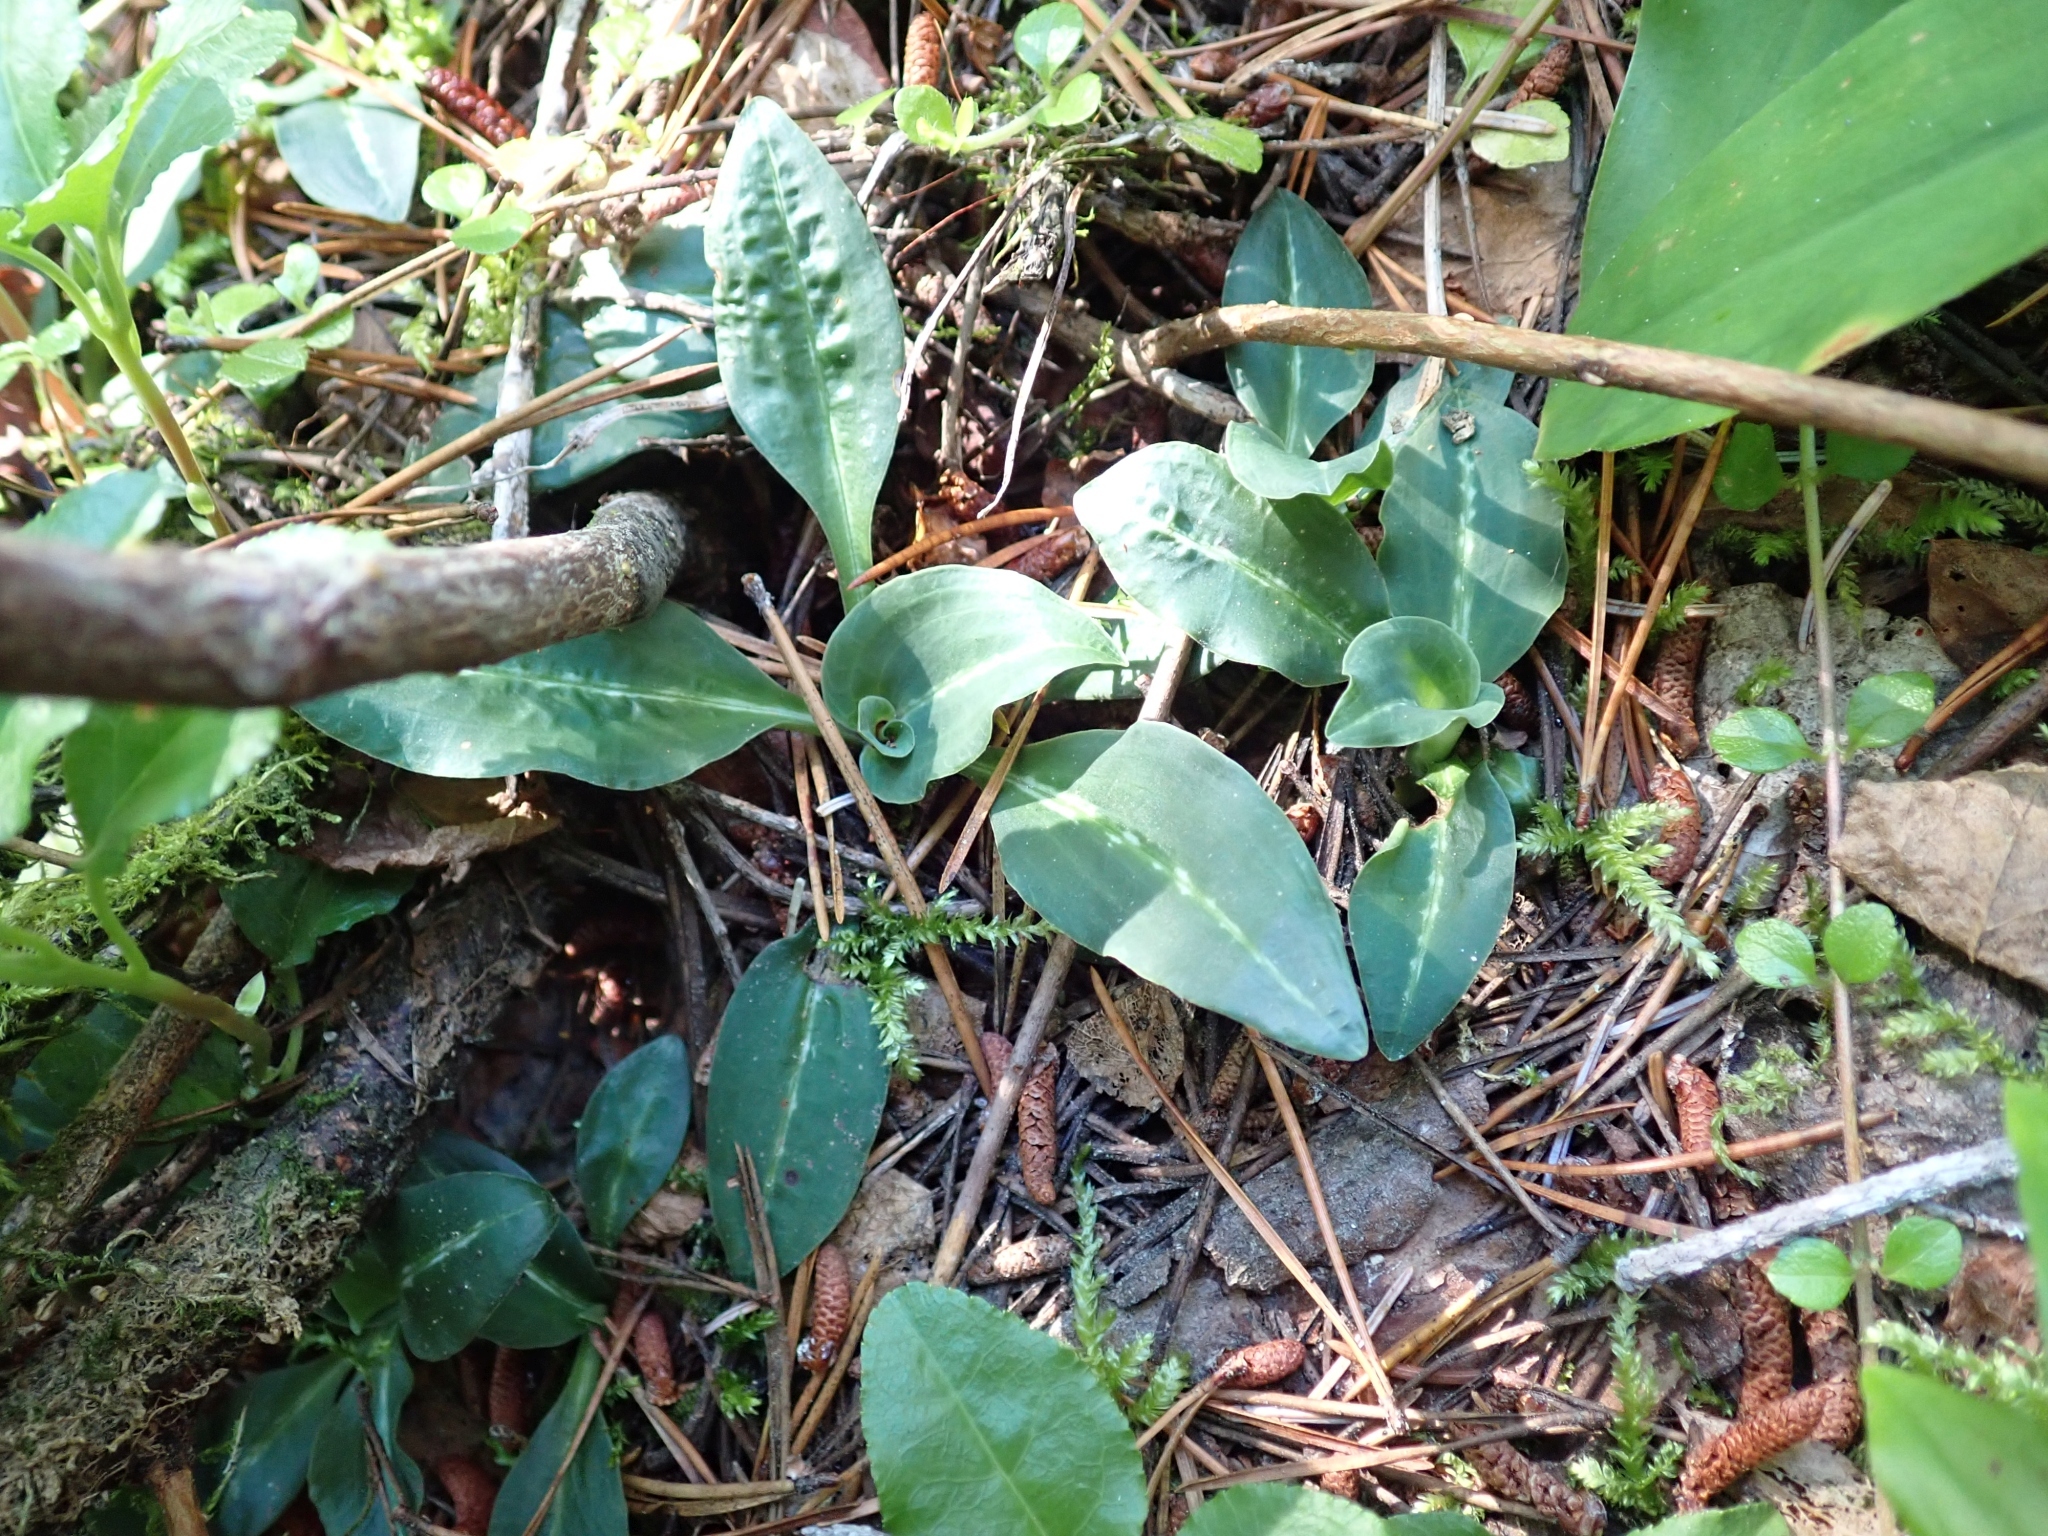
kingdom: Plantae
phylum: Tracheophyta
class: Liliopsida
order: Asparagales
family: Orchidaceae
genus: Goodyera
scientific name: Goodyera oblongifolia
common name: Giant rattlesnake-plantain
